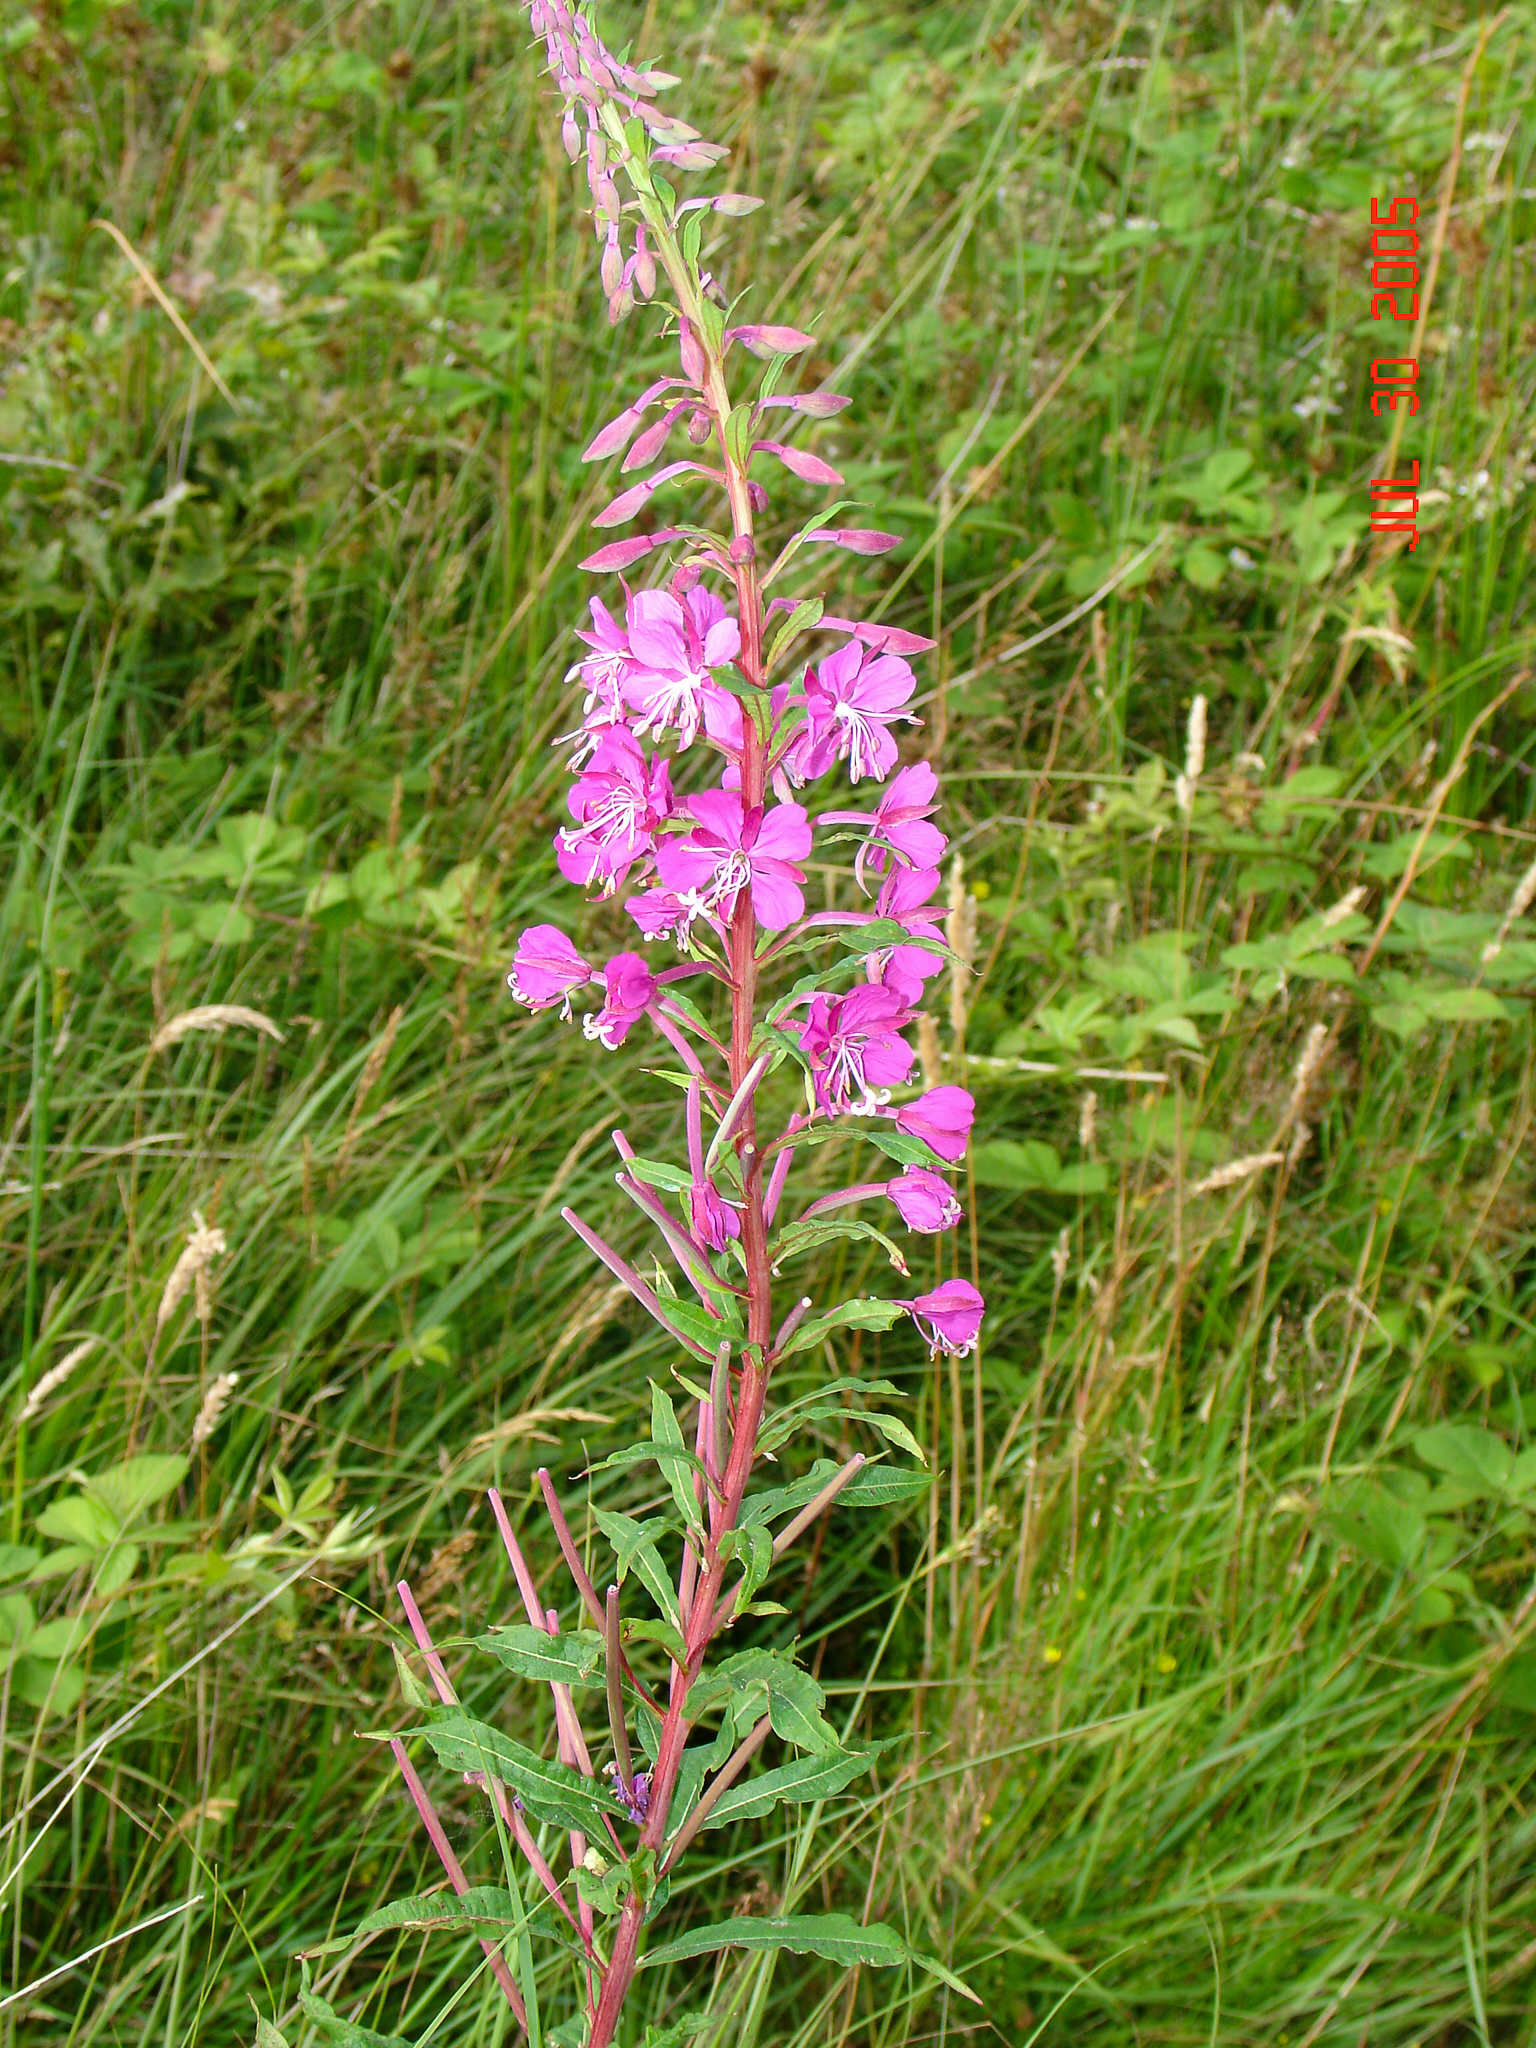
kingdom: Plantae
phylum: Tracheophyta
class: Magnoliopsida
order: Myrtales
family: Onagraceae
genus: Chamaenerion
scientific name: Chamaenerion angustifolium
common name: Fireweed
